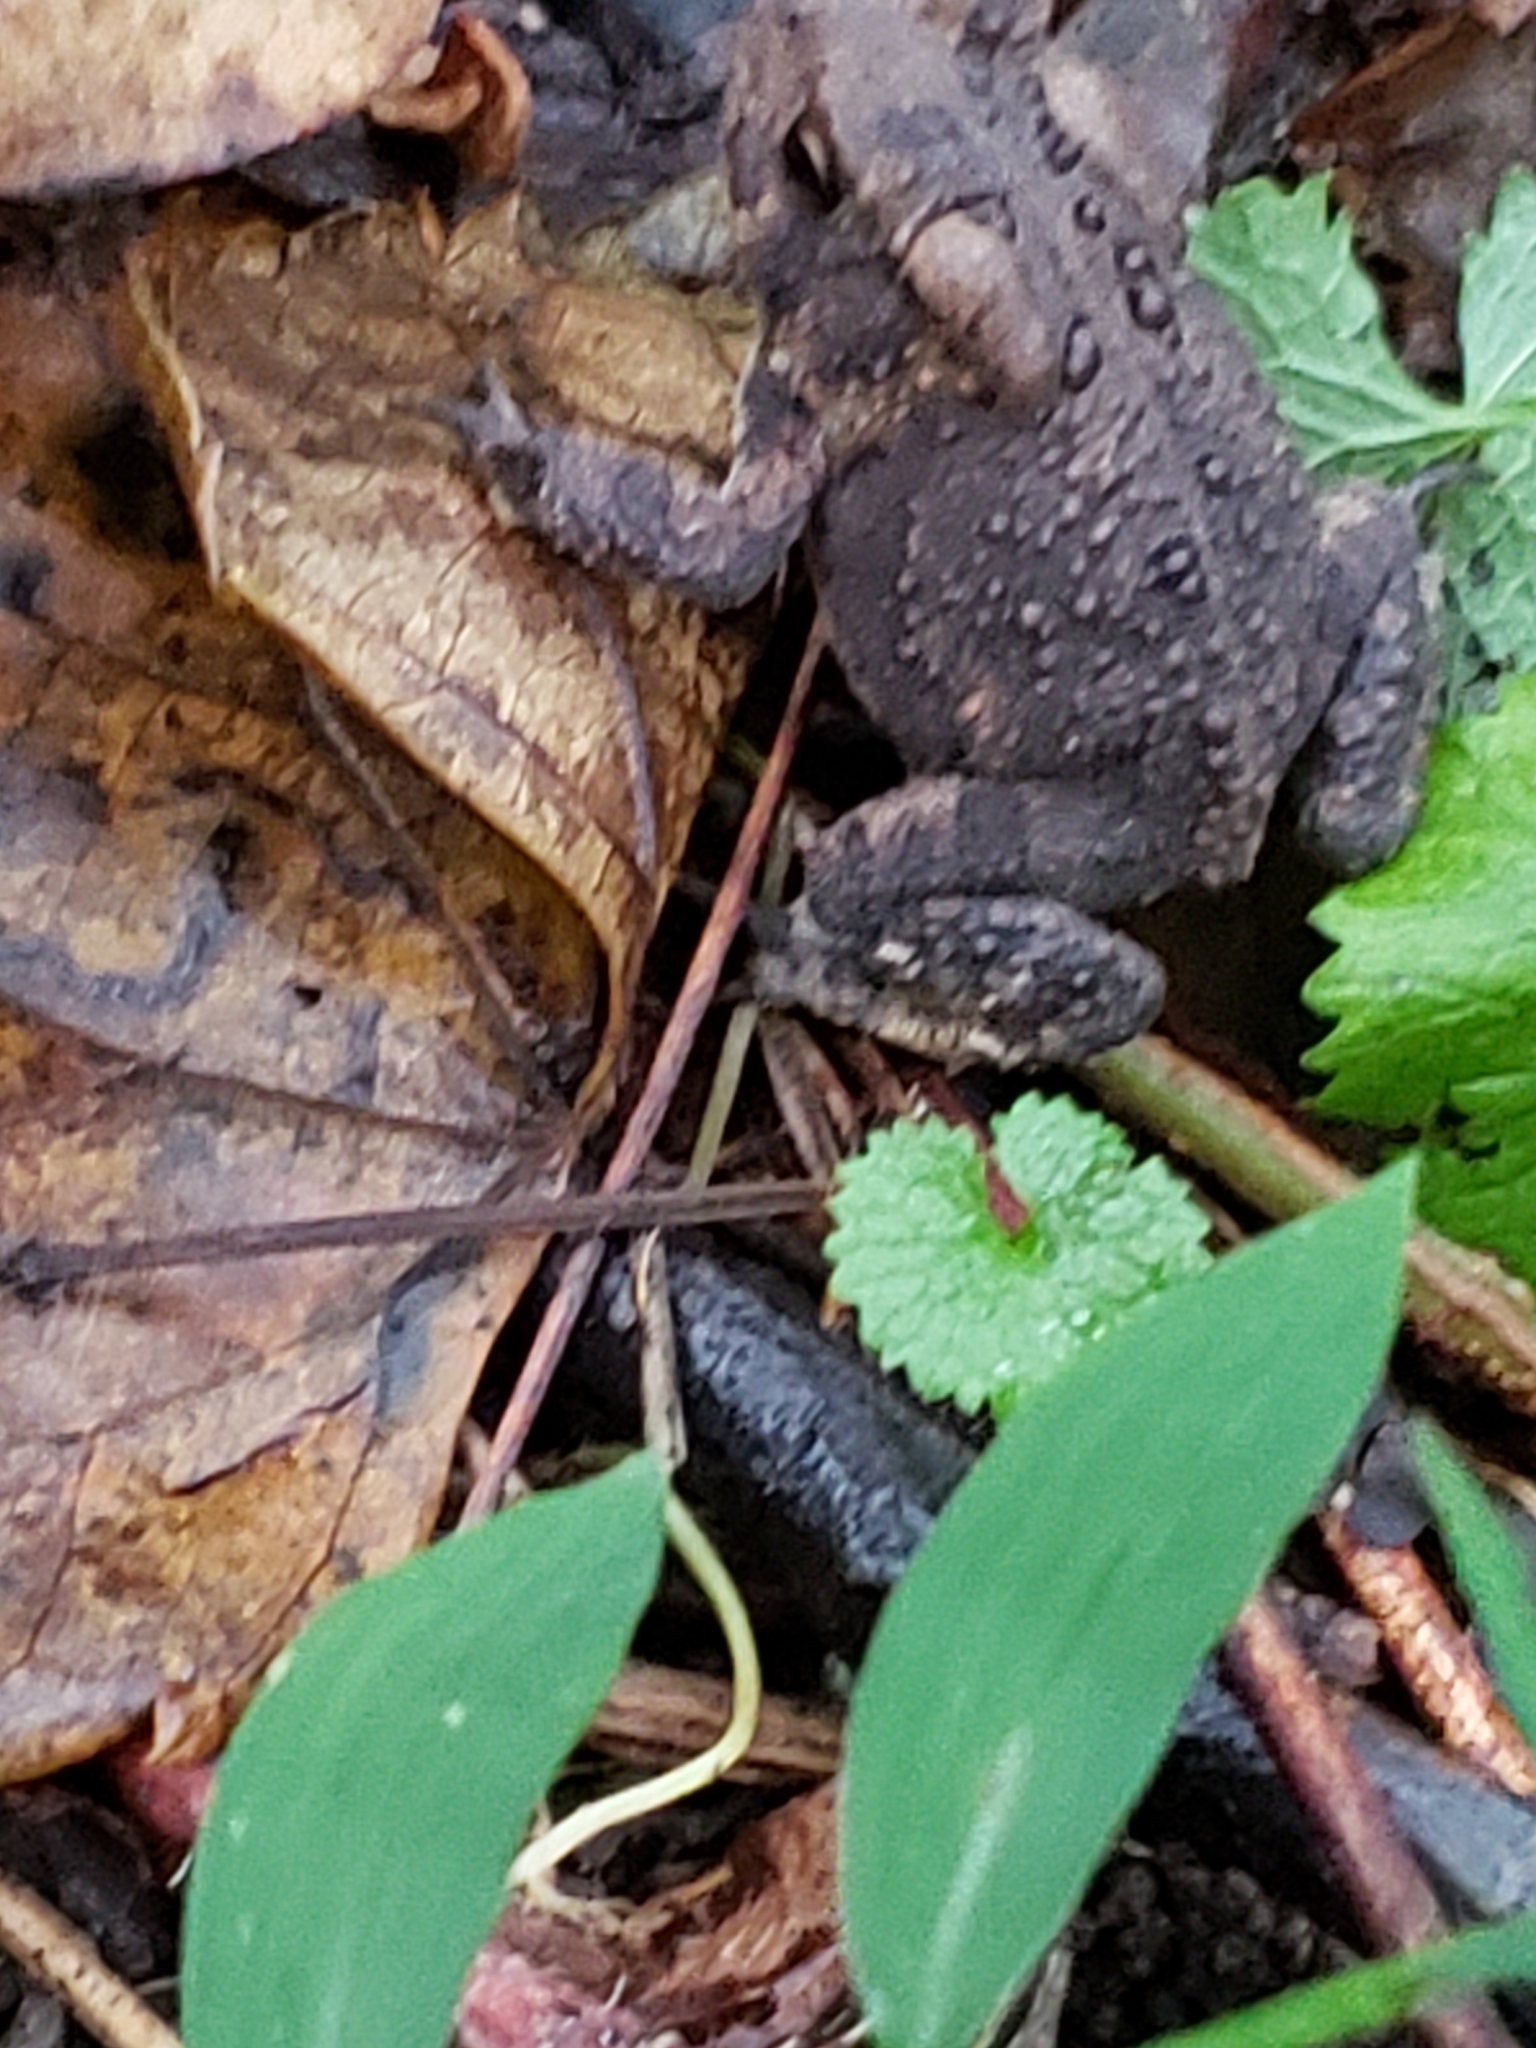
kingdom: Animalia
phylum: Chordata
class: Amphibia
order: Anura
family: Bufonidae
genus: Anaxyrus
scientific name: Anaxyrus americanus
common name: American toad
